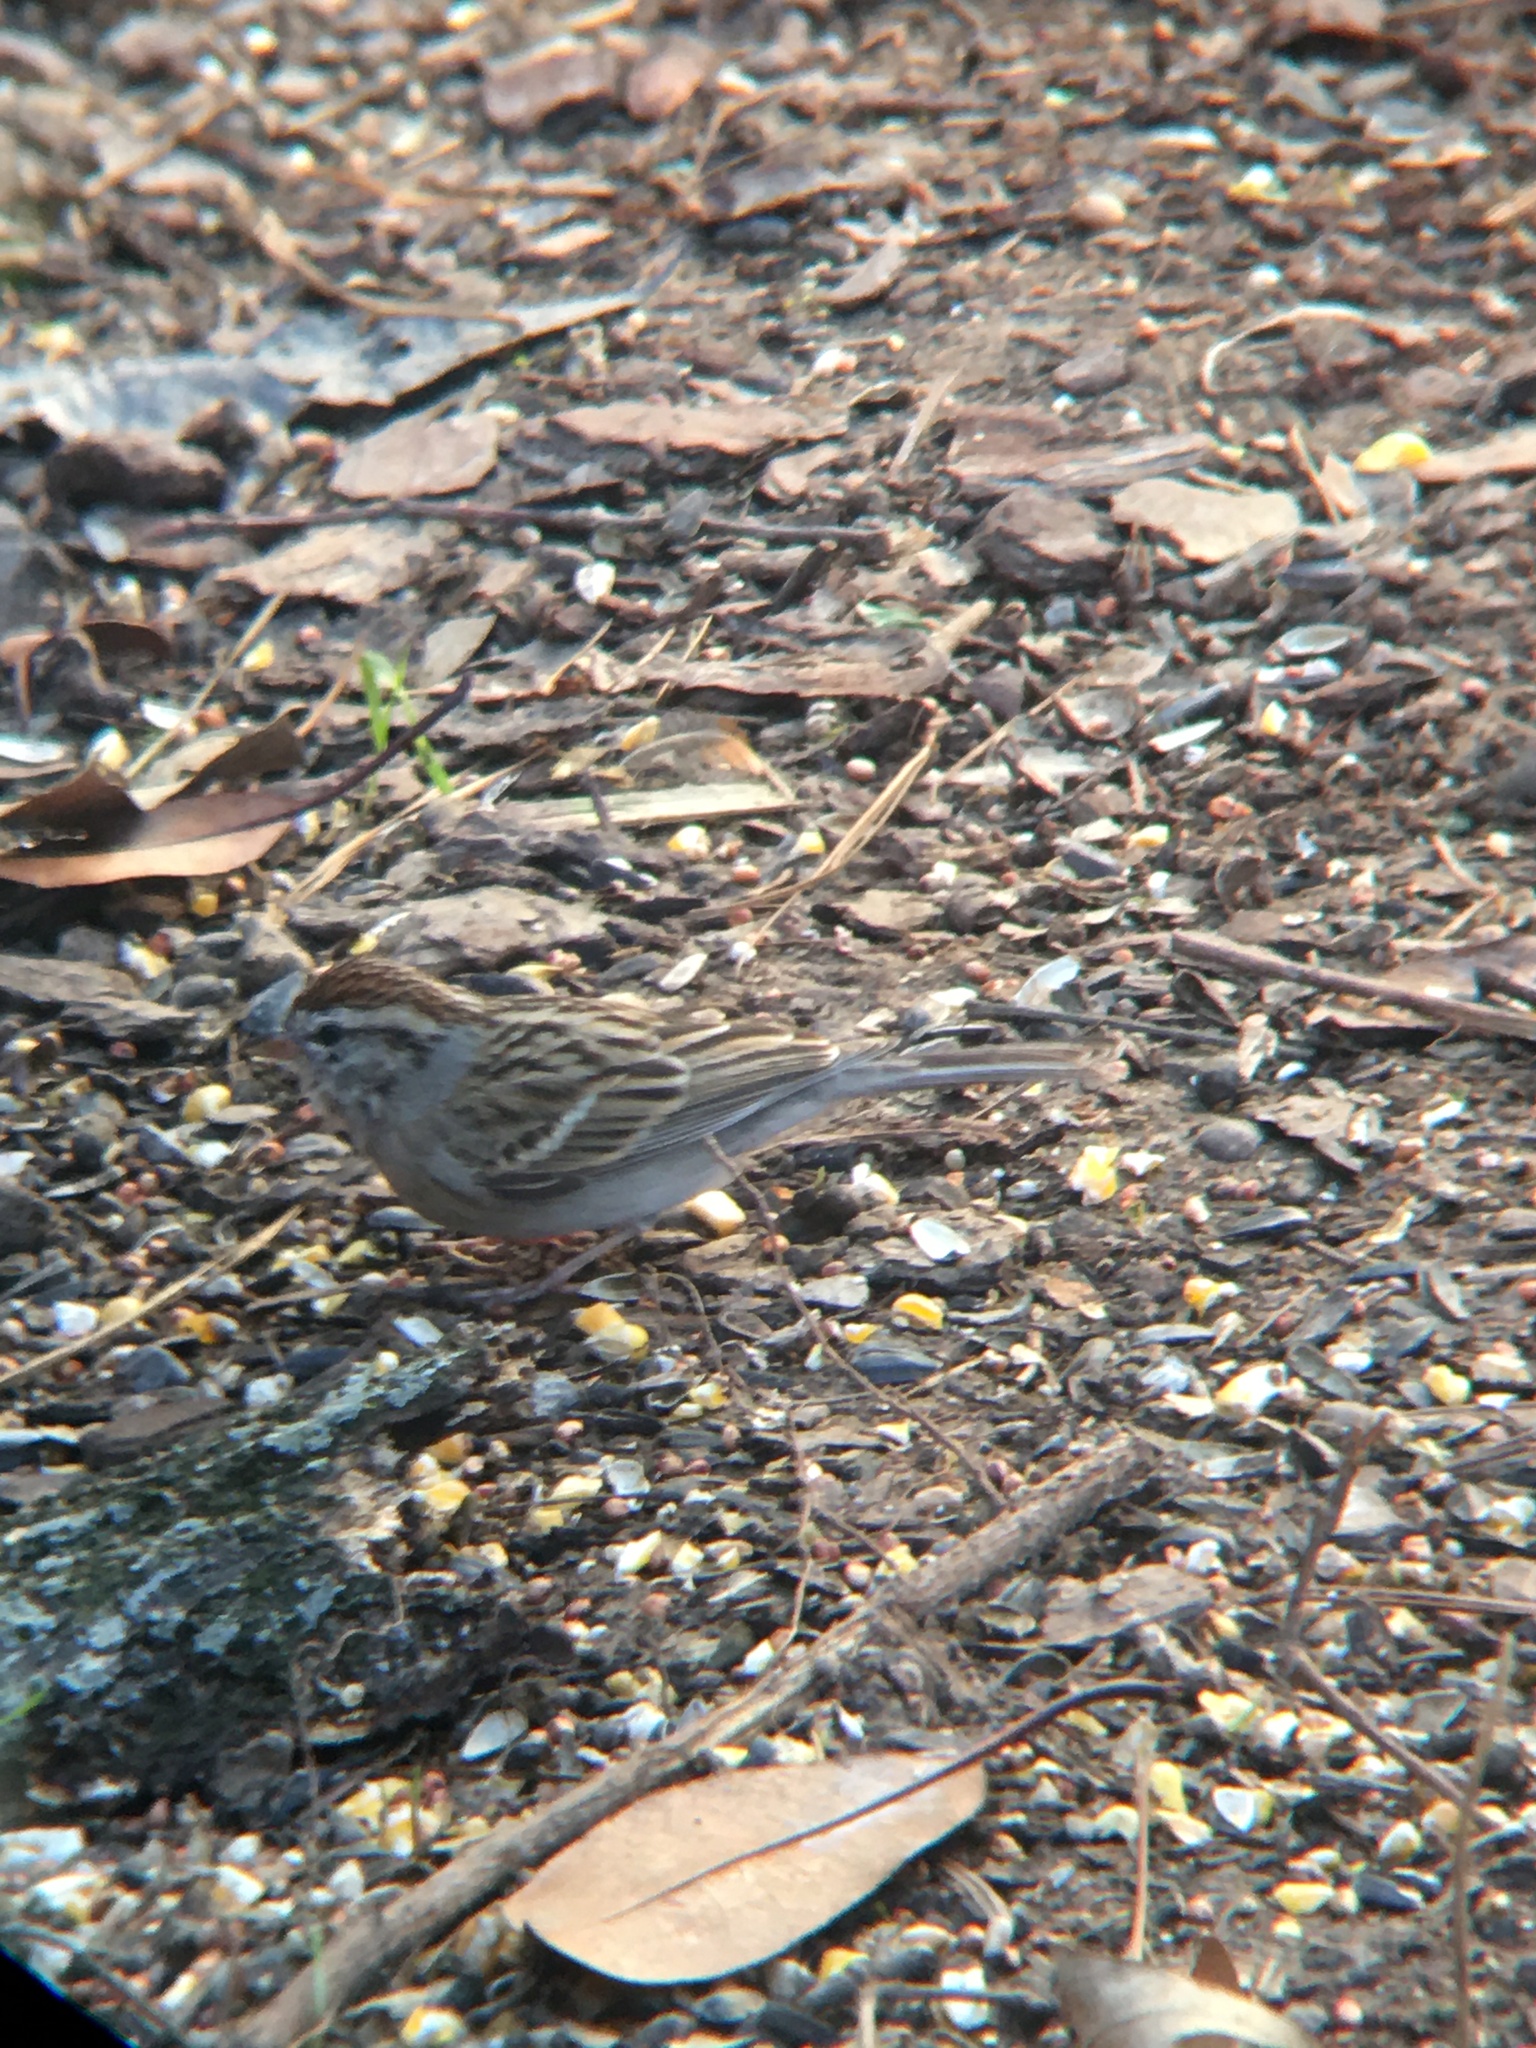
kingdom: Animalia
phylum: Chordata
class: Aves
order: Passeriformes
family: Passerellidae
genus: Spizella
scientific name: Spizella passerina
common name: Chipping sparrow
